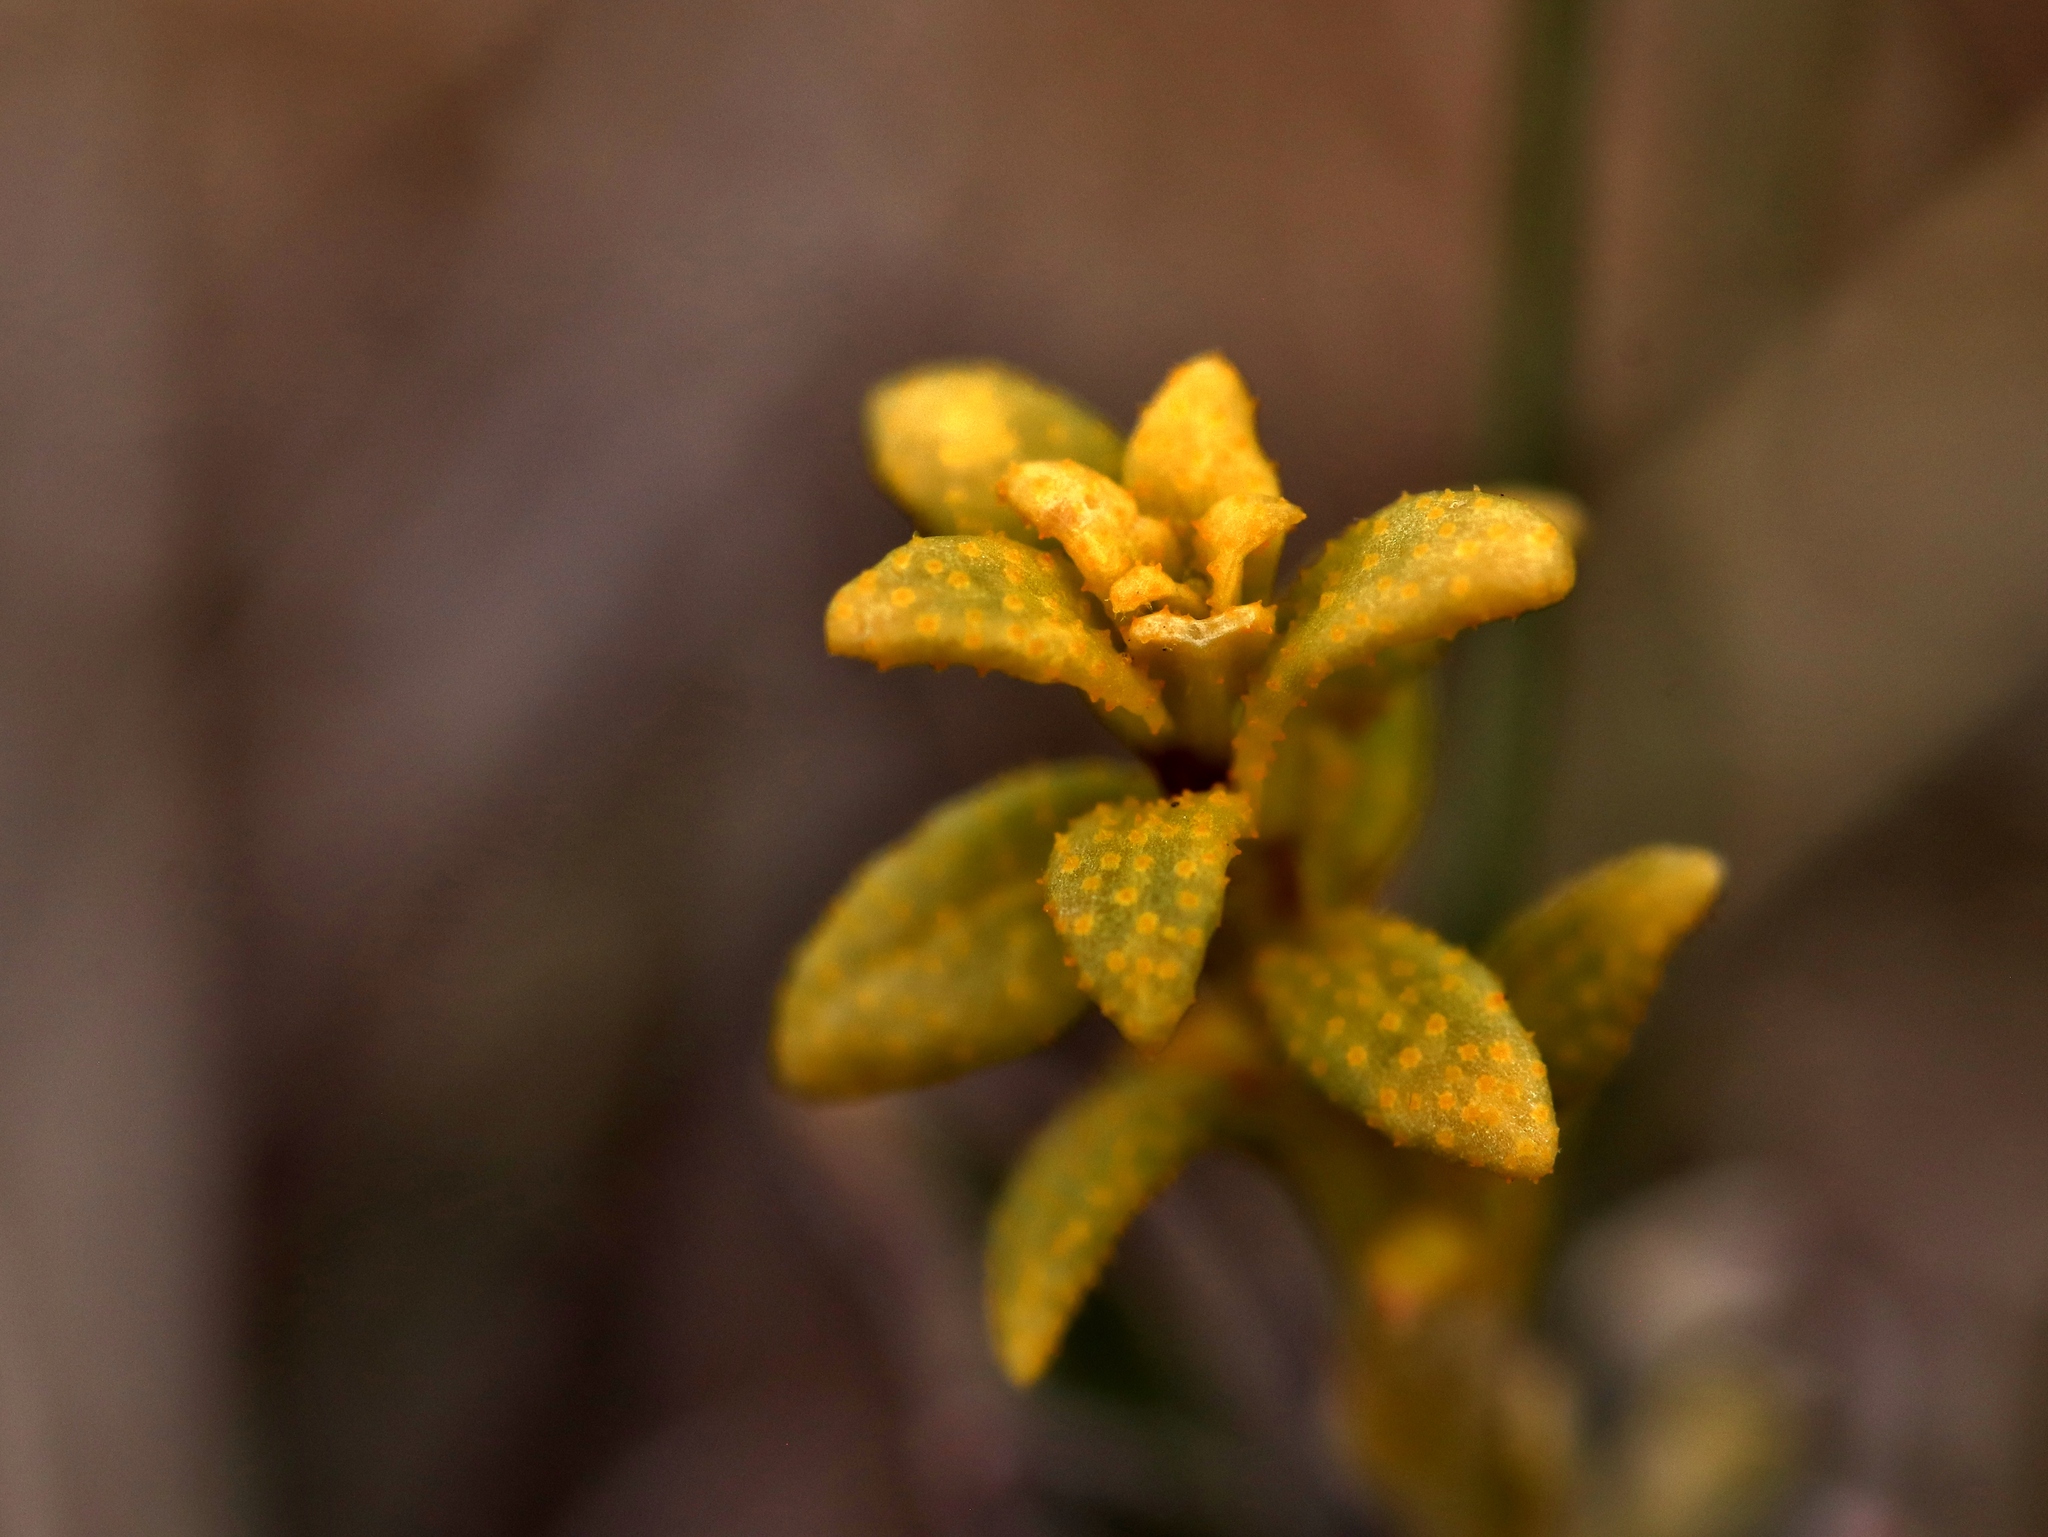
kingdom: Fungi
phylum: Basidiomycota
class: Pucciniomycetes
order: Pucciniales
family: Pucciniaceae
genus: Puccinia
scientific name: Puccinia monoica
